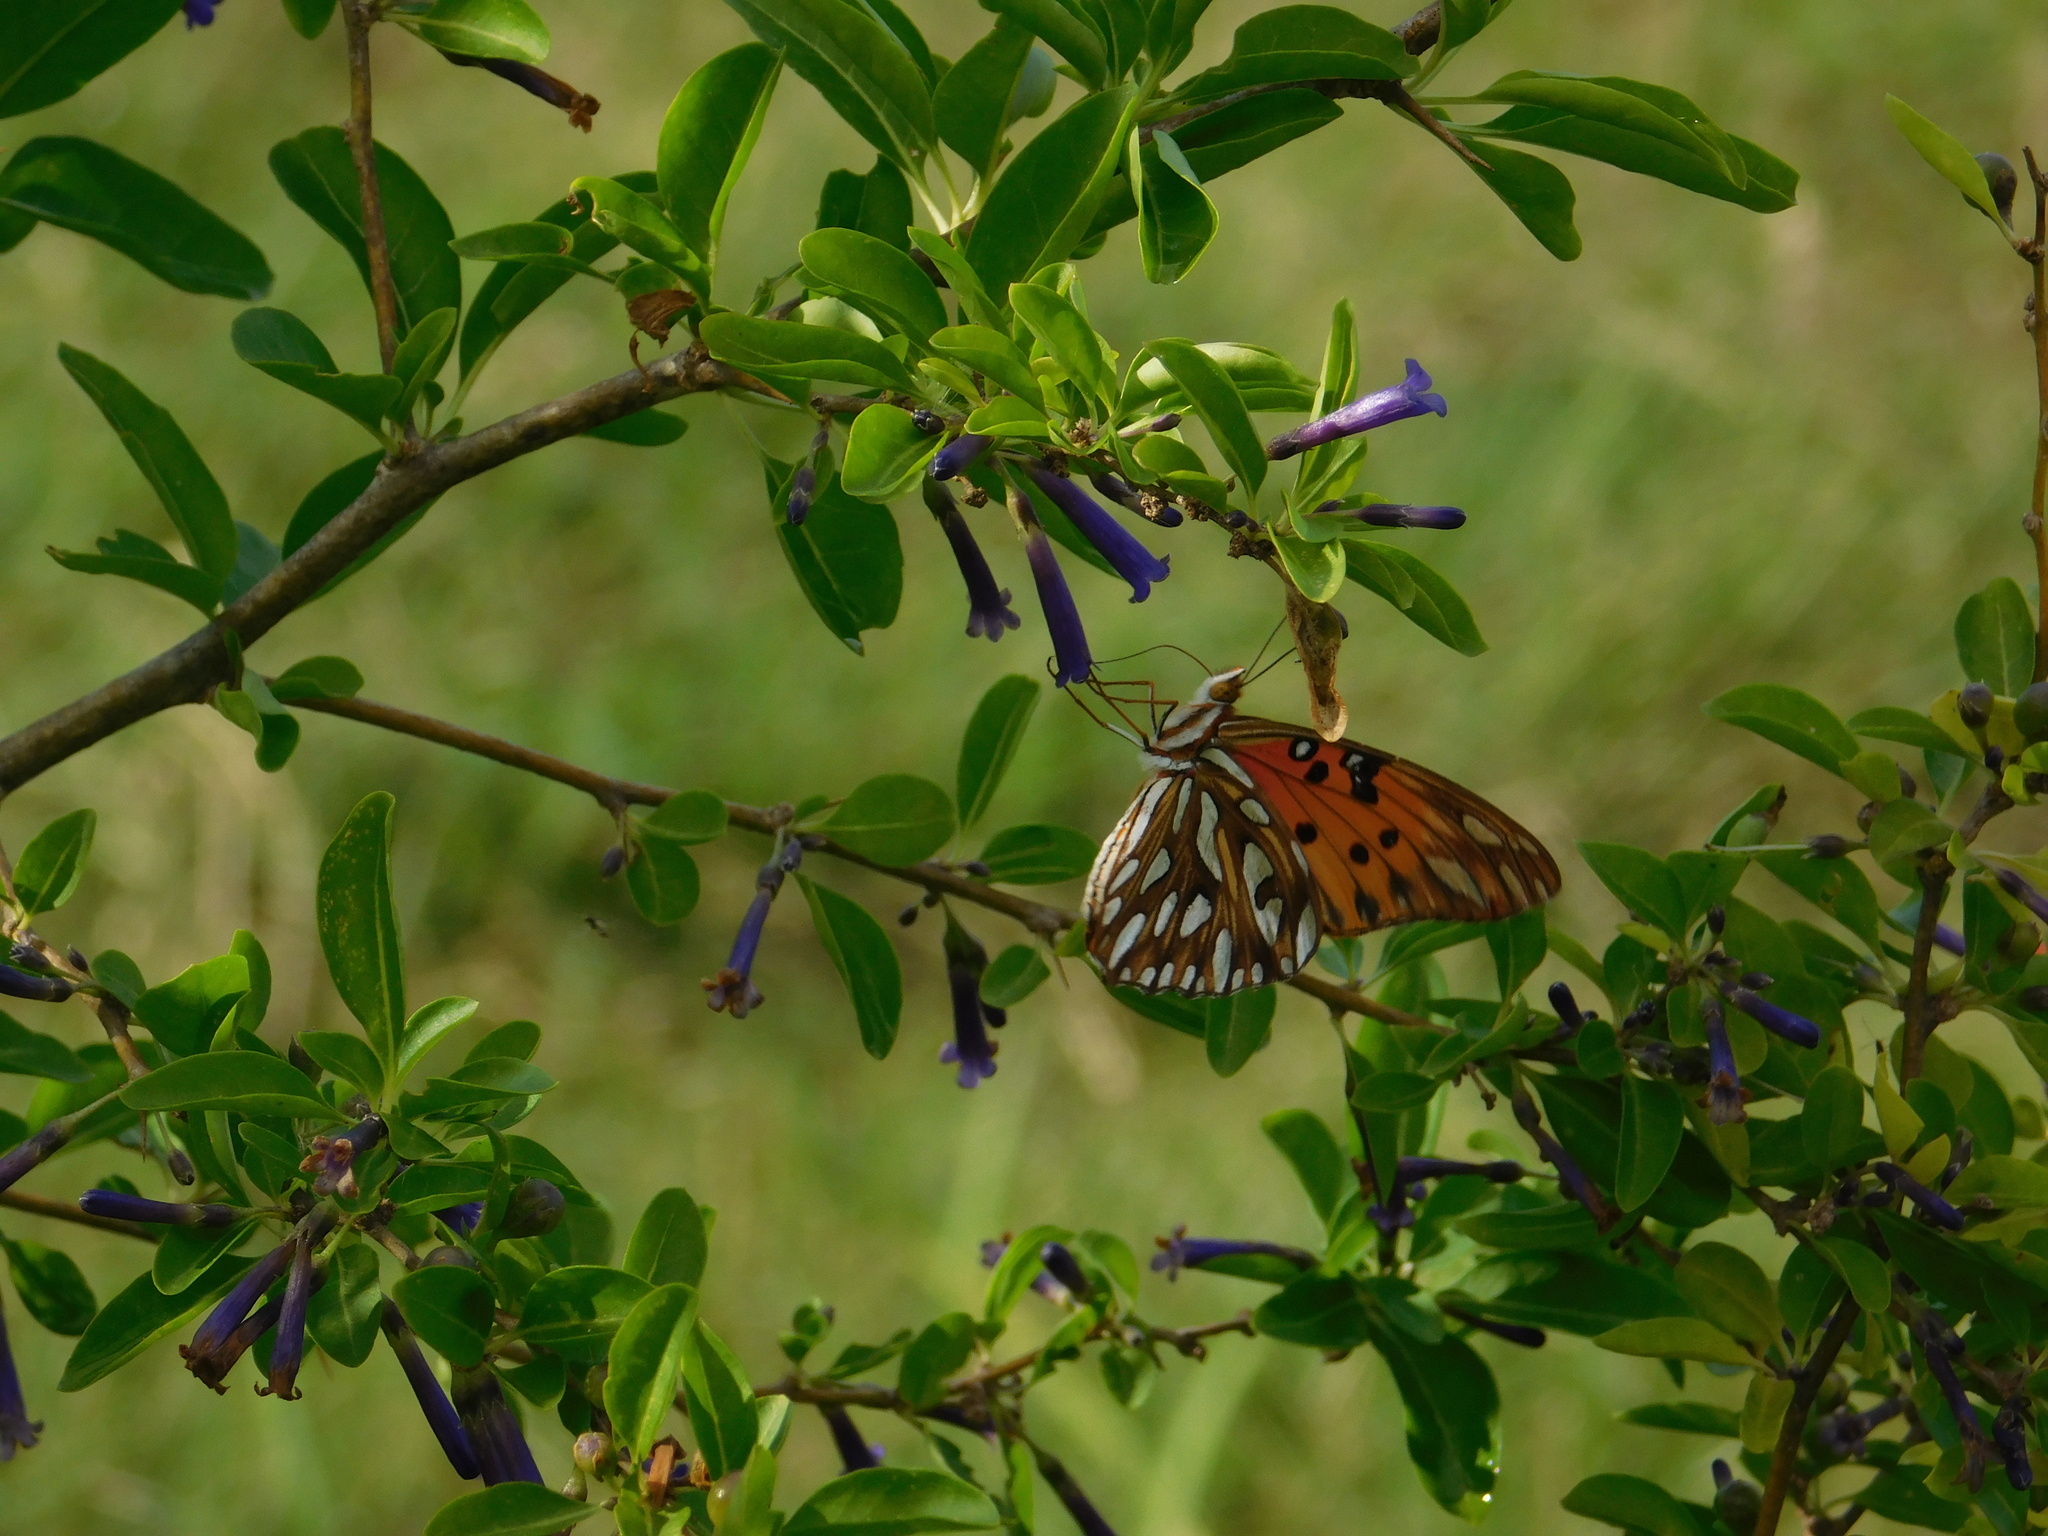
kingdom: Animalia
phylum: Arthropoda
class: Insecta
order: Lepidoptera
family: Nymphalidae
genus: Dione
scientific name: Dione vanillae
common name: Gulf fritillary
